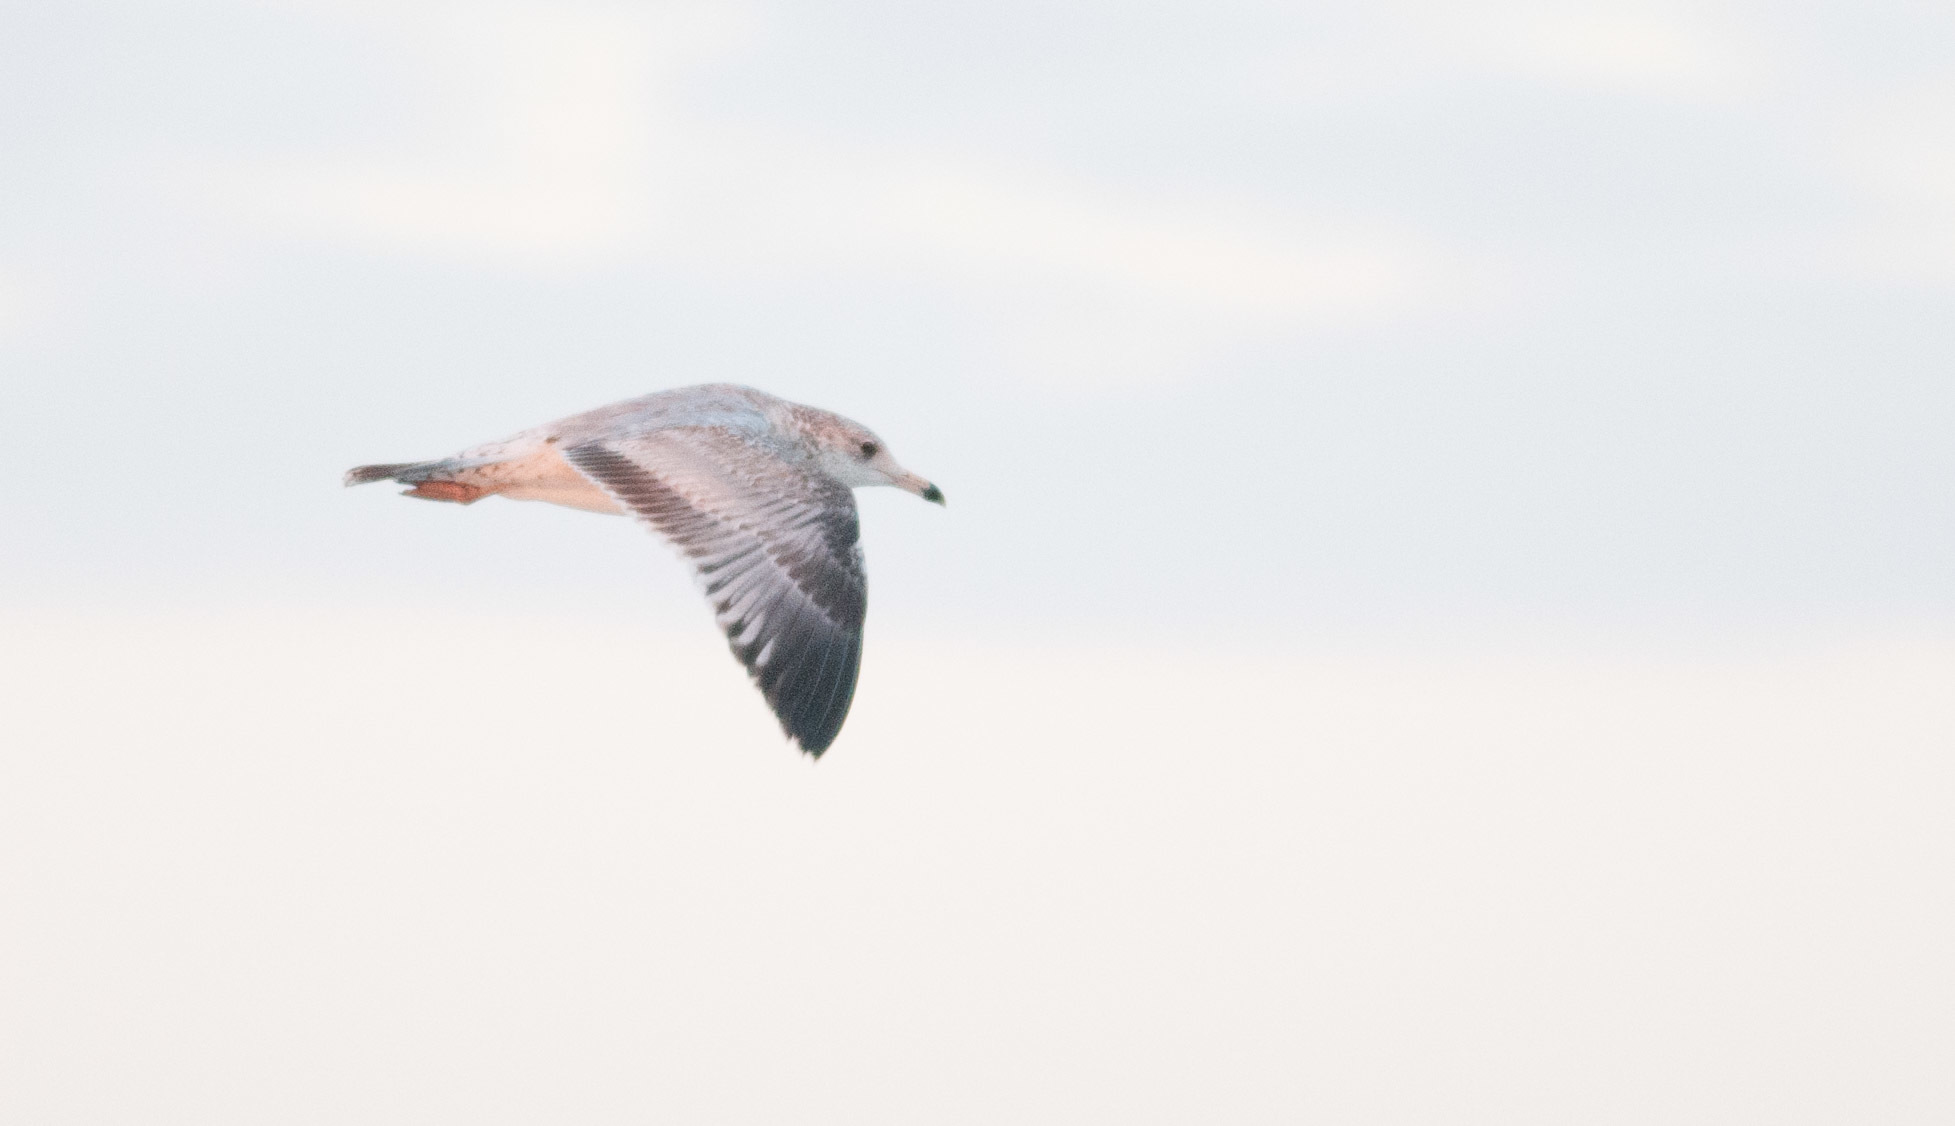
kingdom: Animalia
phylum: Chordata
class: Aves
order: Charadriiformes
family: Laridae
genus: Larus
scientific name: Larus delawarensis
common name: Ring-billed gull
